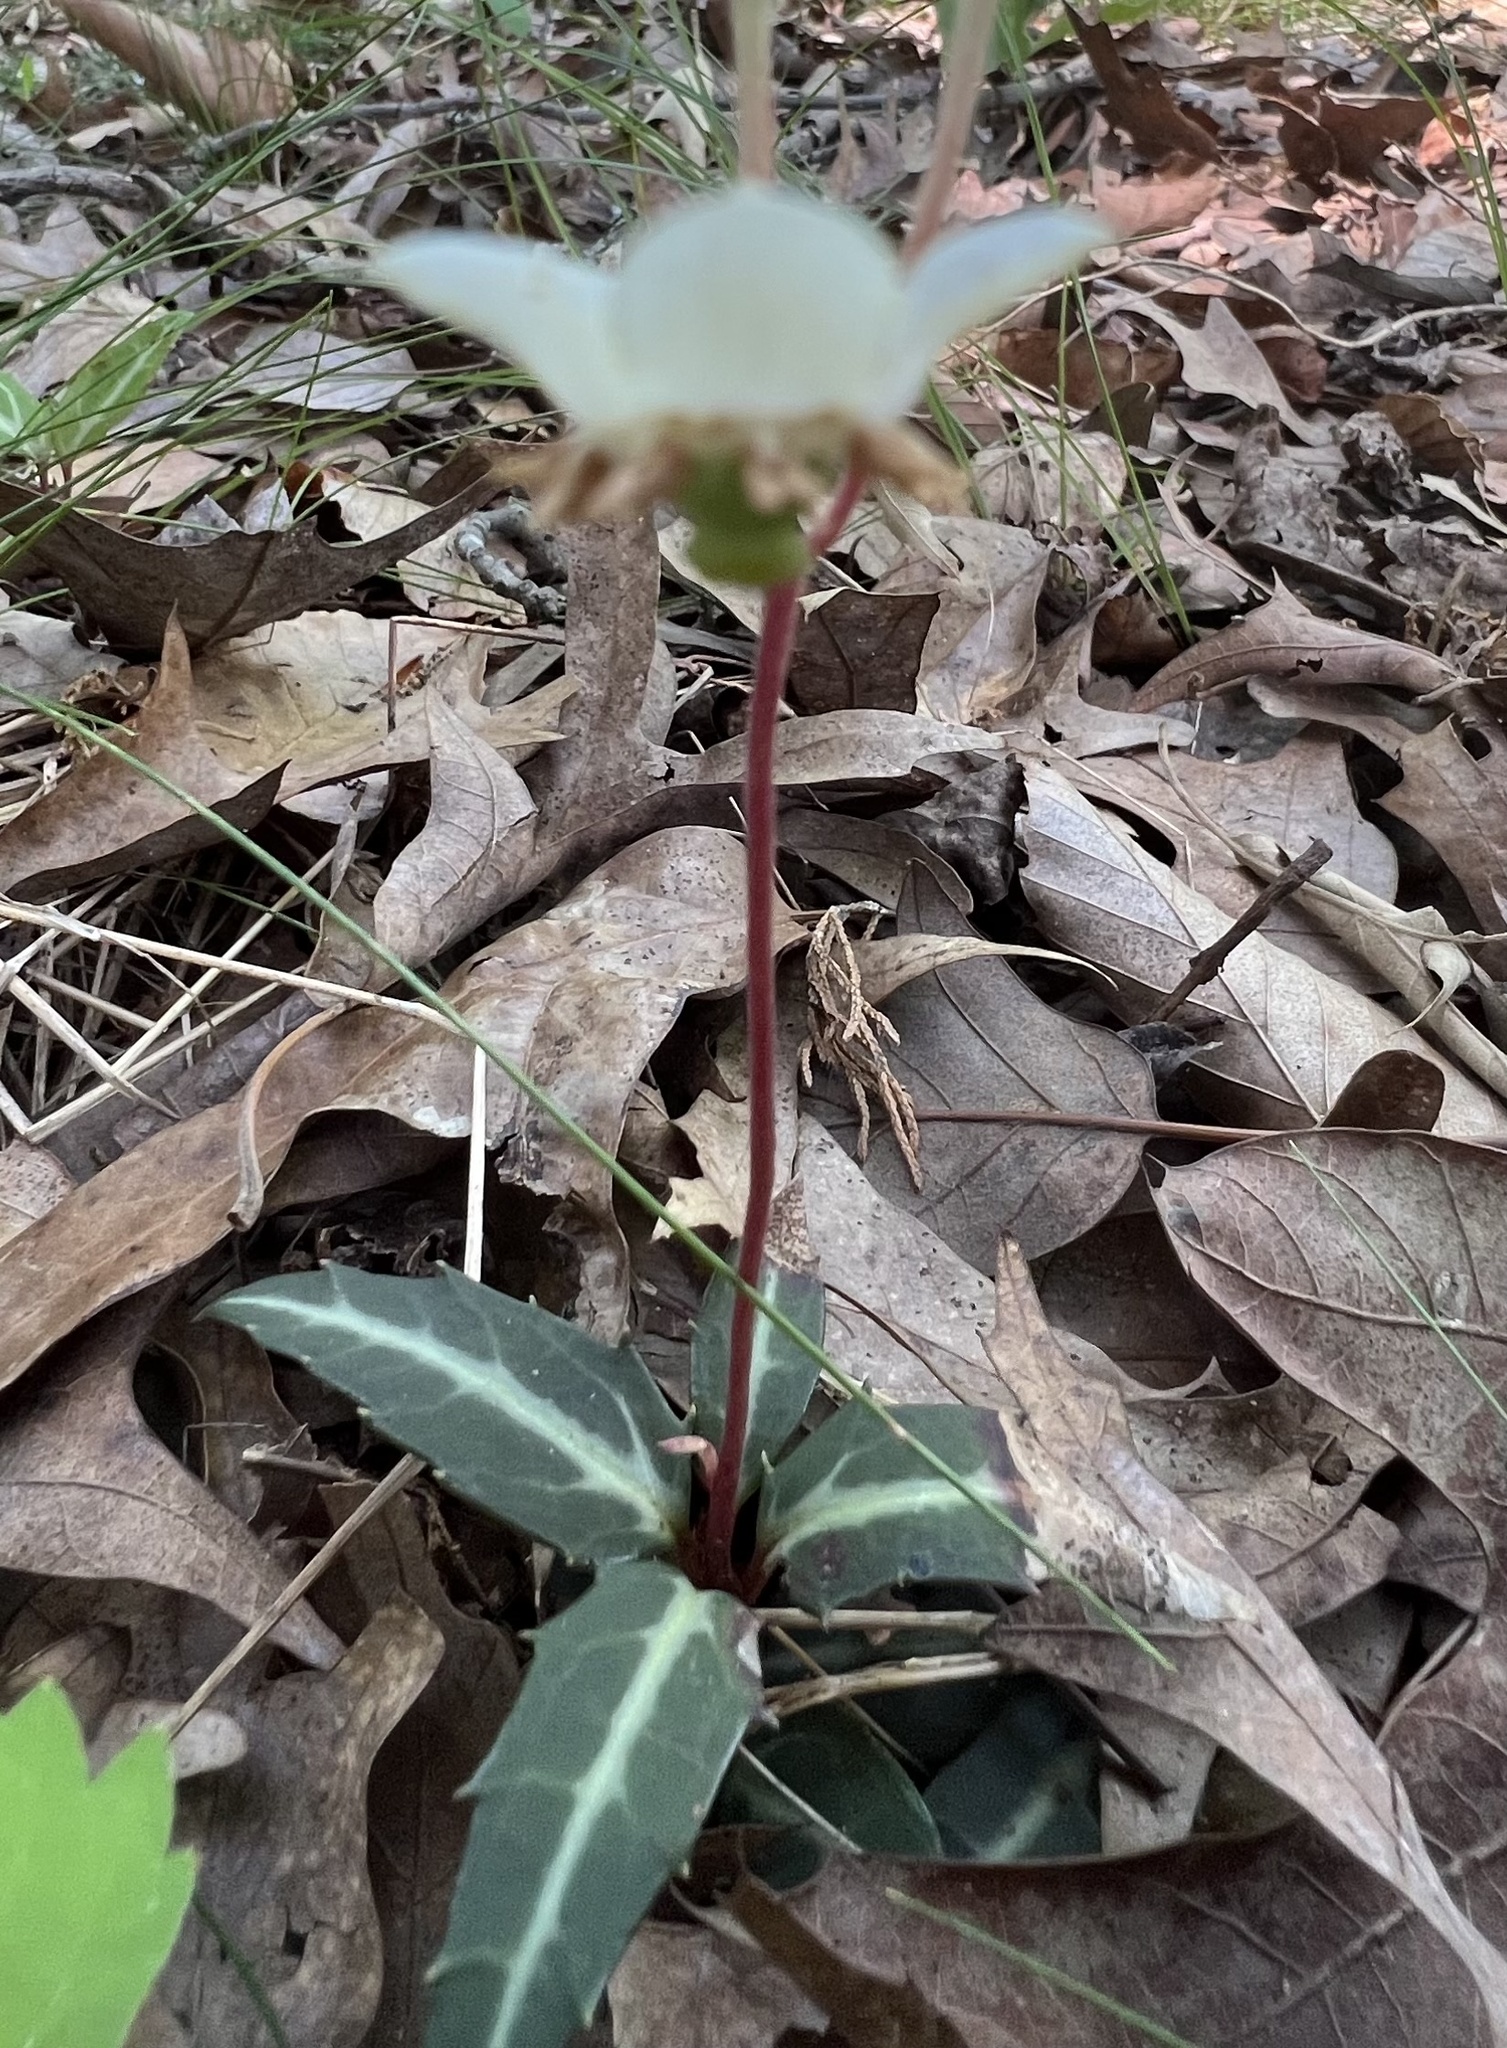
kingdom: Plantae
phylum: Tracheophyta
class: Magnoliopsida
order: Ericales
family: Ericaceae
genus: Chimaphila
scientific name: Chimaphila maculata
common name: Spotted pipsissewa
